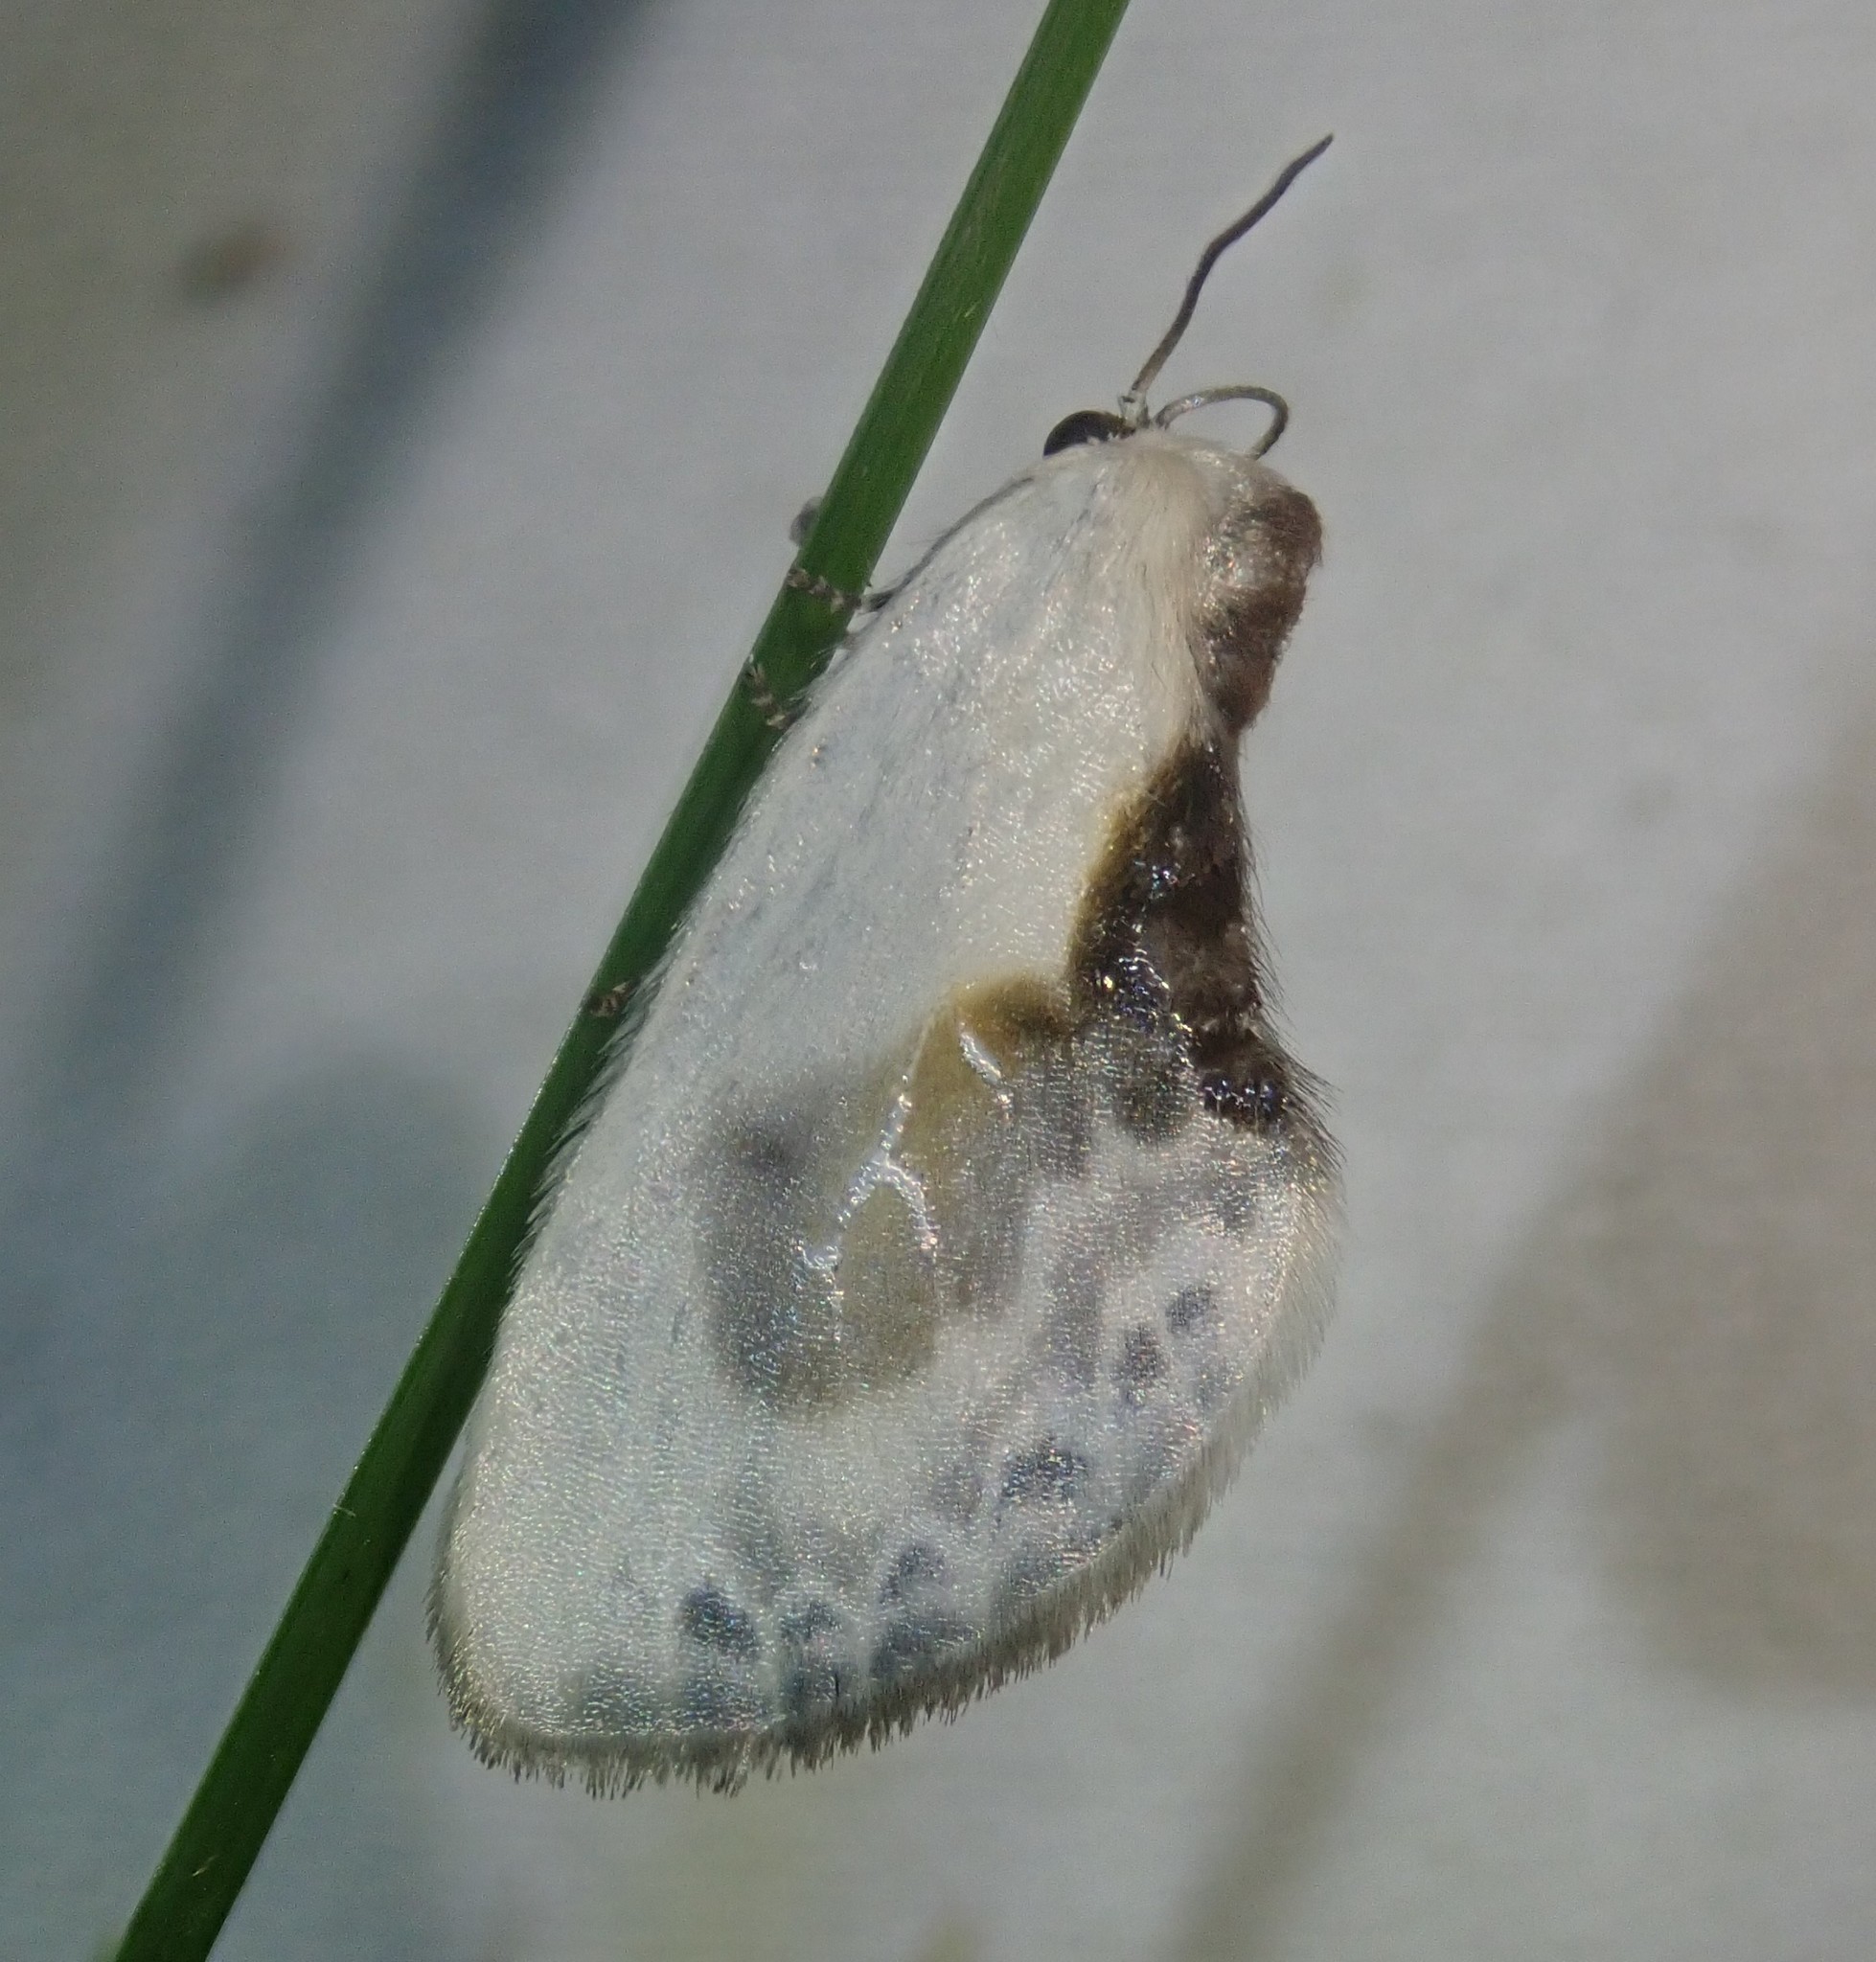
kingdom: Animalia
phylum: Arthropoda
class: Insecta
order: Lepidoptera
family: Drepanidae
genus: Cilix
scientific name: Cilix glaucata
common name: Chinese character
